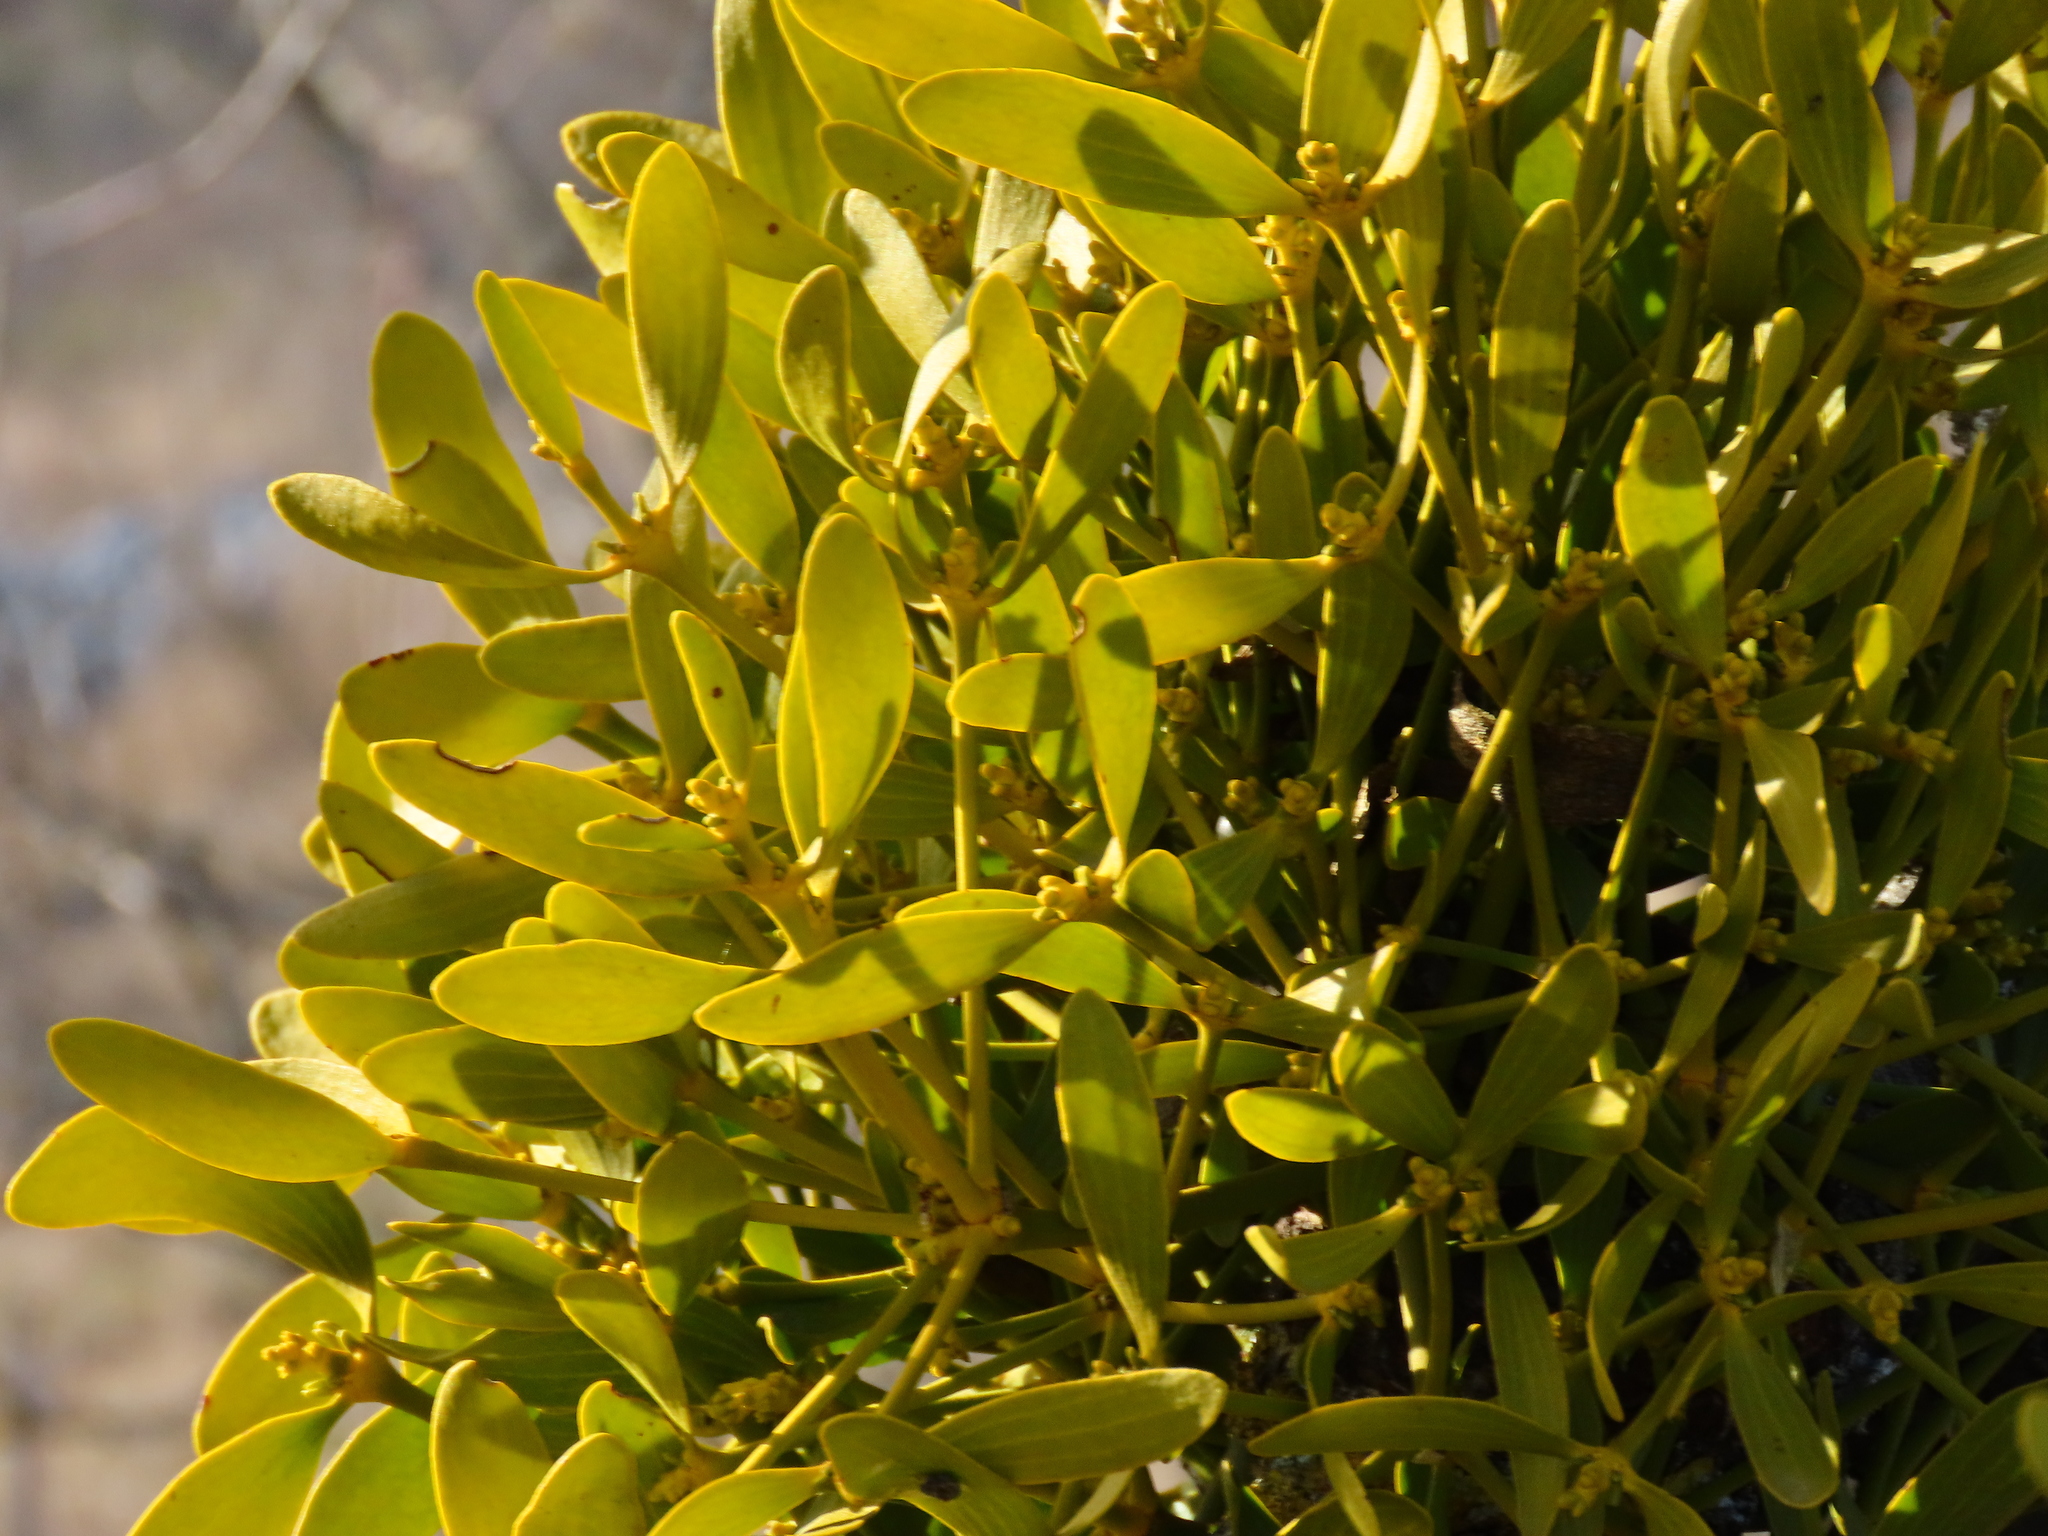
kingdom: Plantae
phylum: Tracheophyta
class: Magnoliopsida
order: Santalales
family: Viscaceae
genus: Viscum
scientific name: Viscum album
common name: Mistletoe
